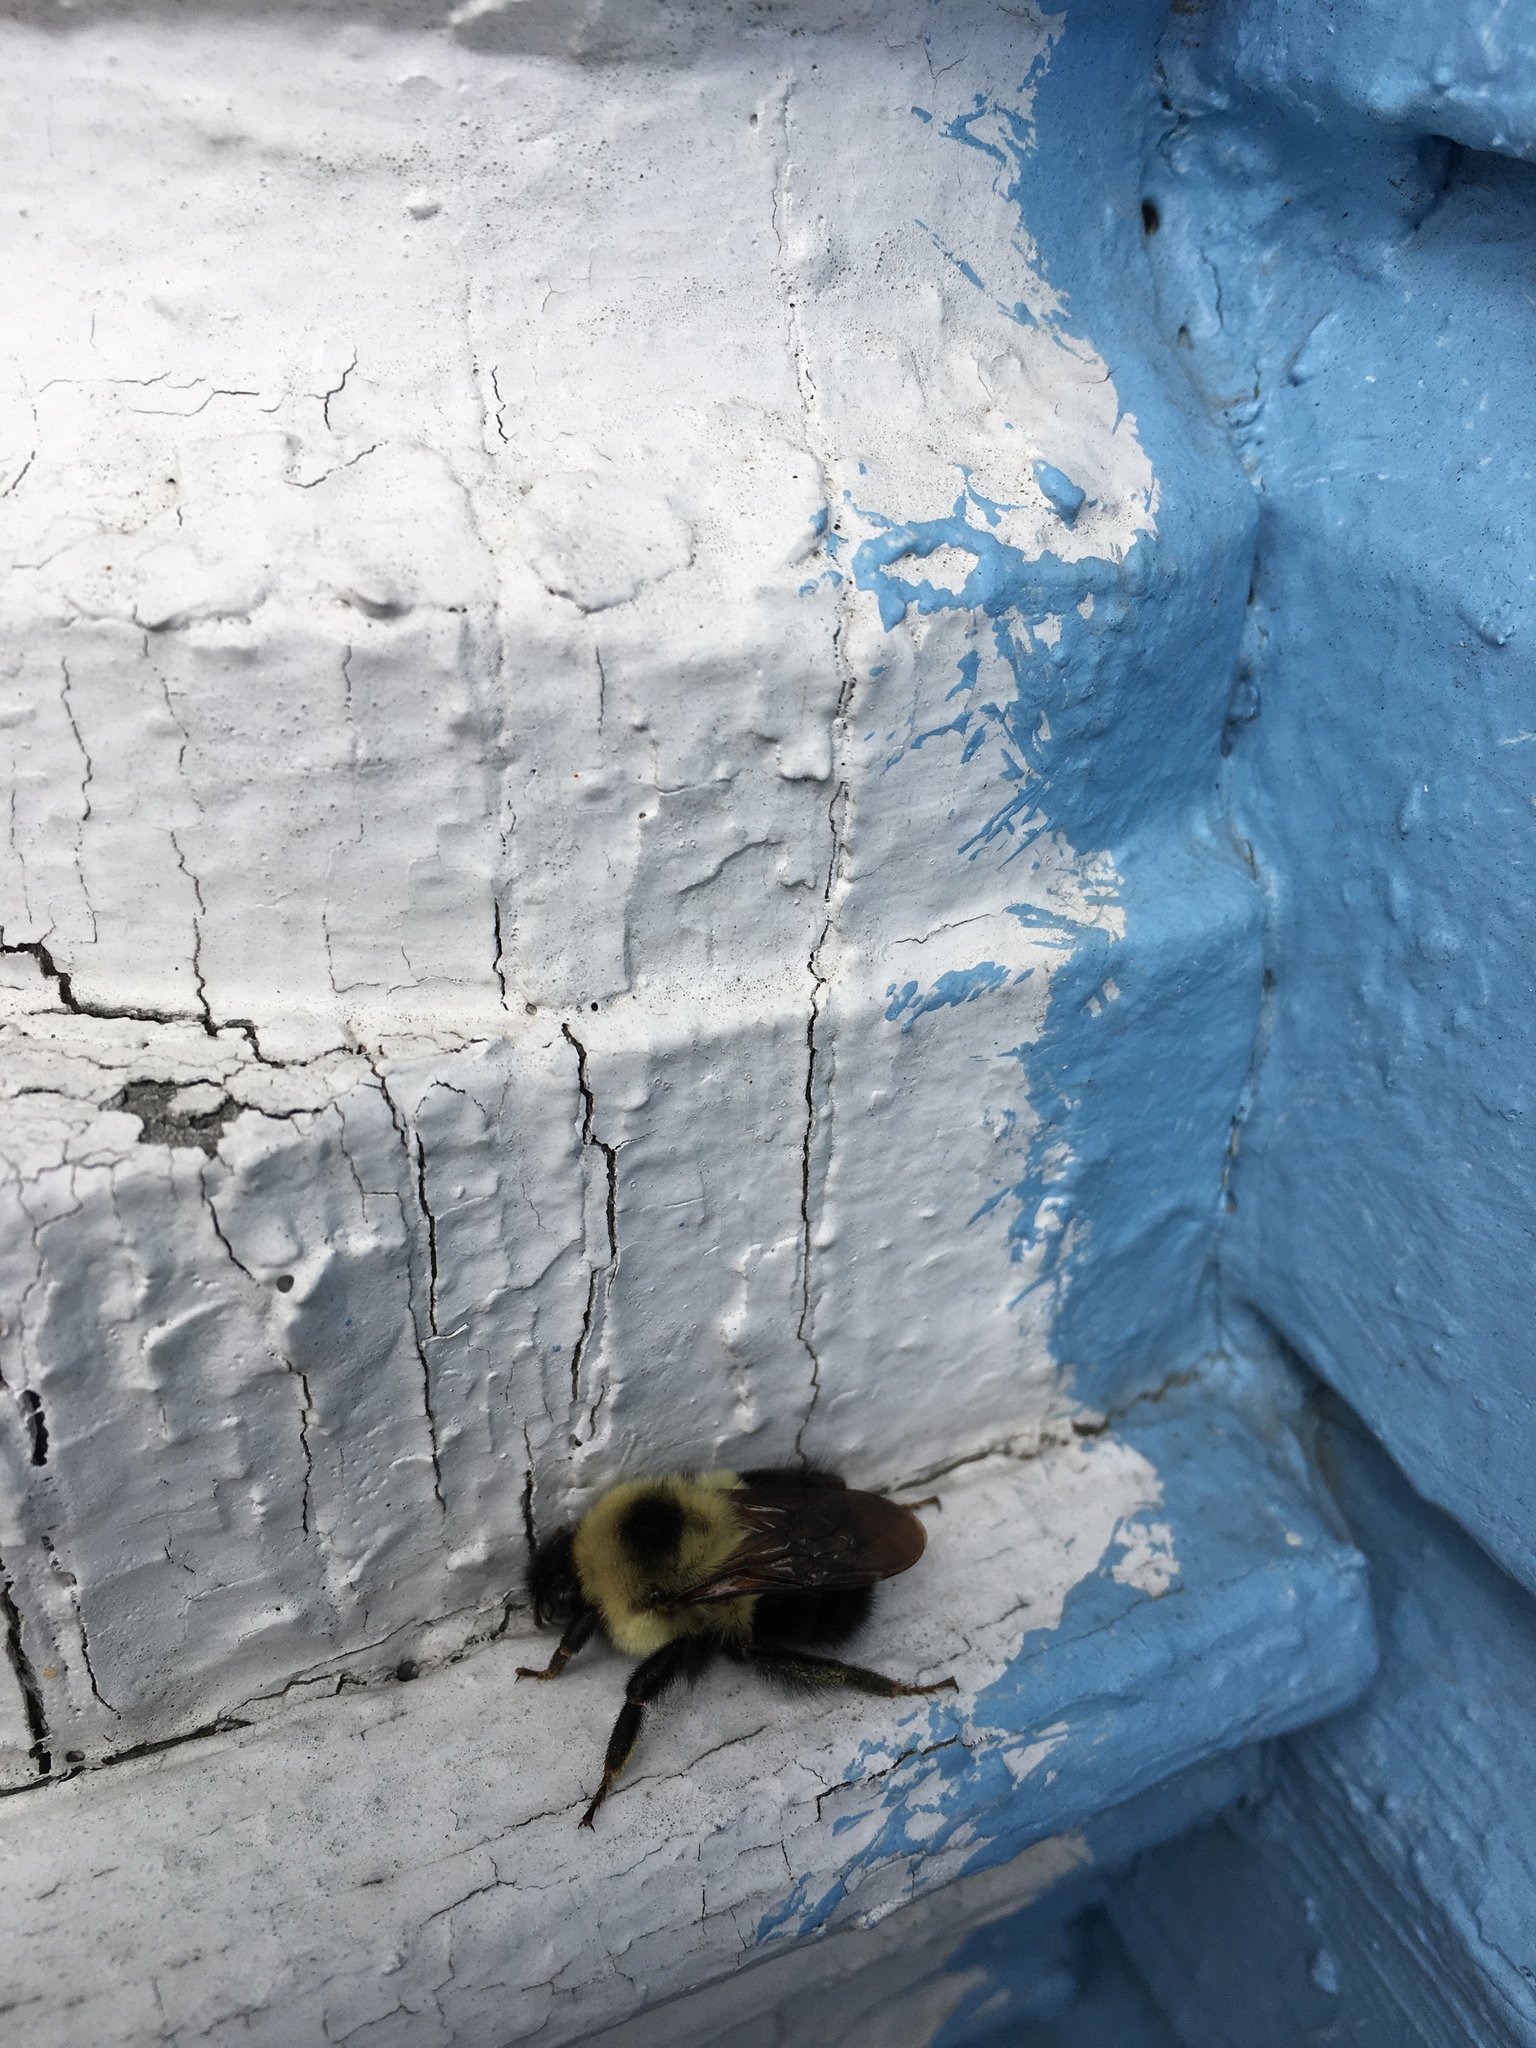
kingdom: Animalia
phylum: Arthropoda
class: Insecta
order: Hymenoptera
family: Apidae
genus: Bombus
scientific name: Bombus griseocollis
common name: Brown-belted bumble bee
